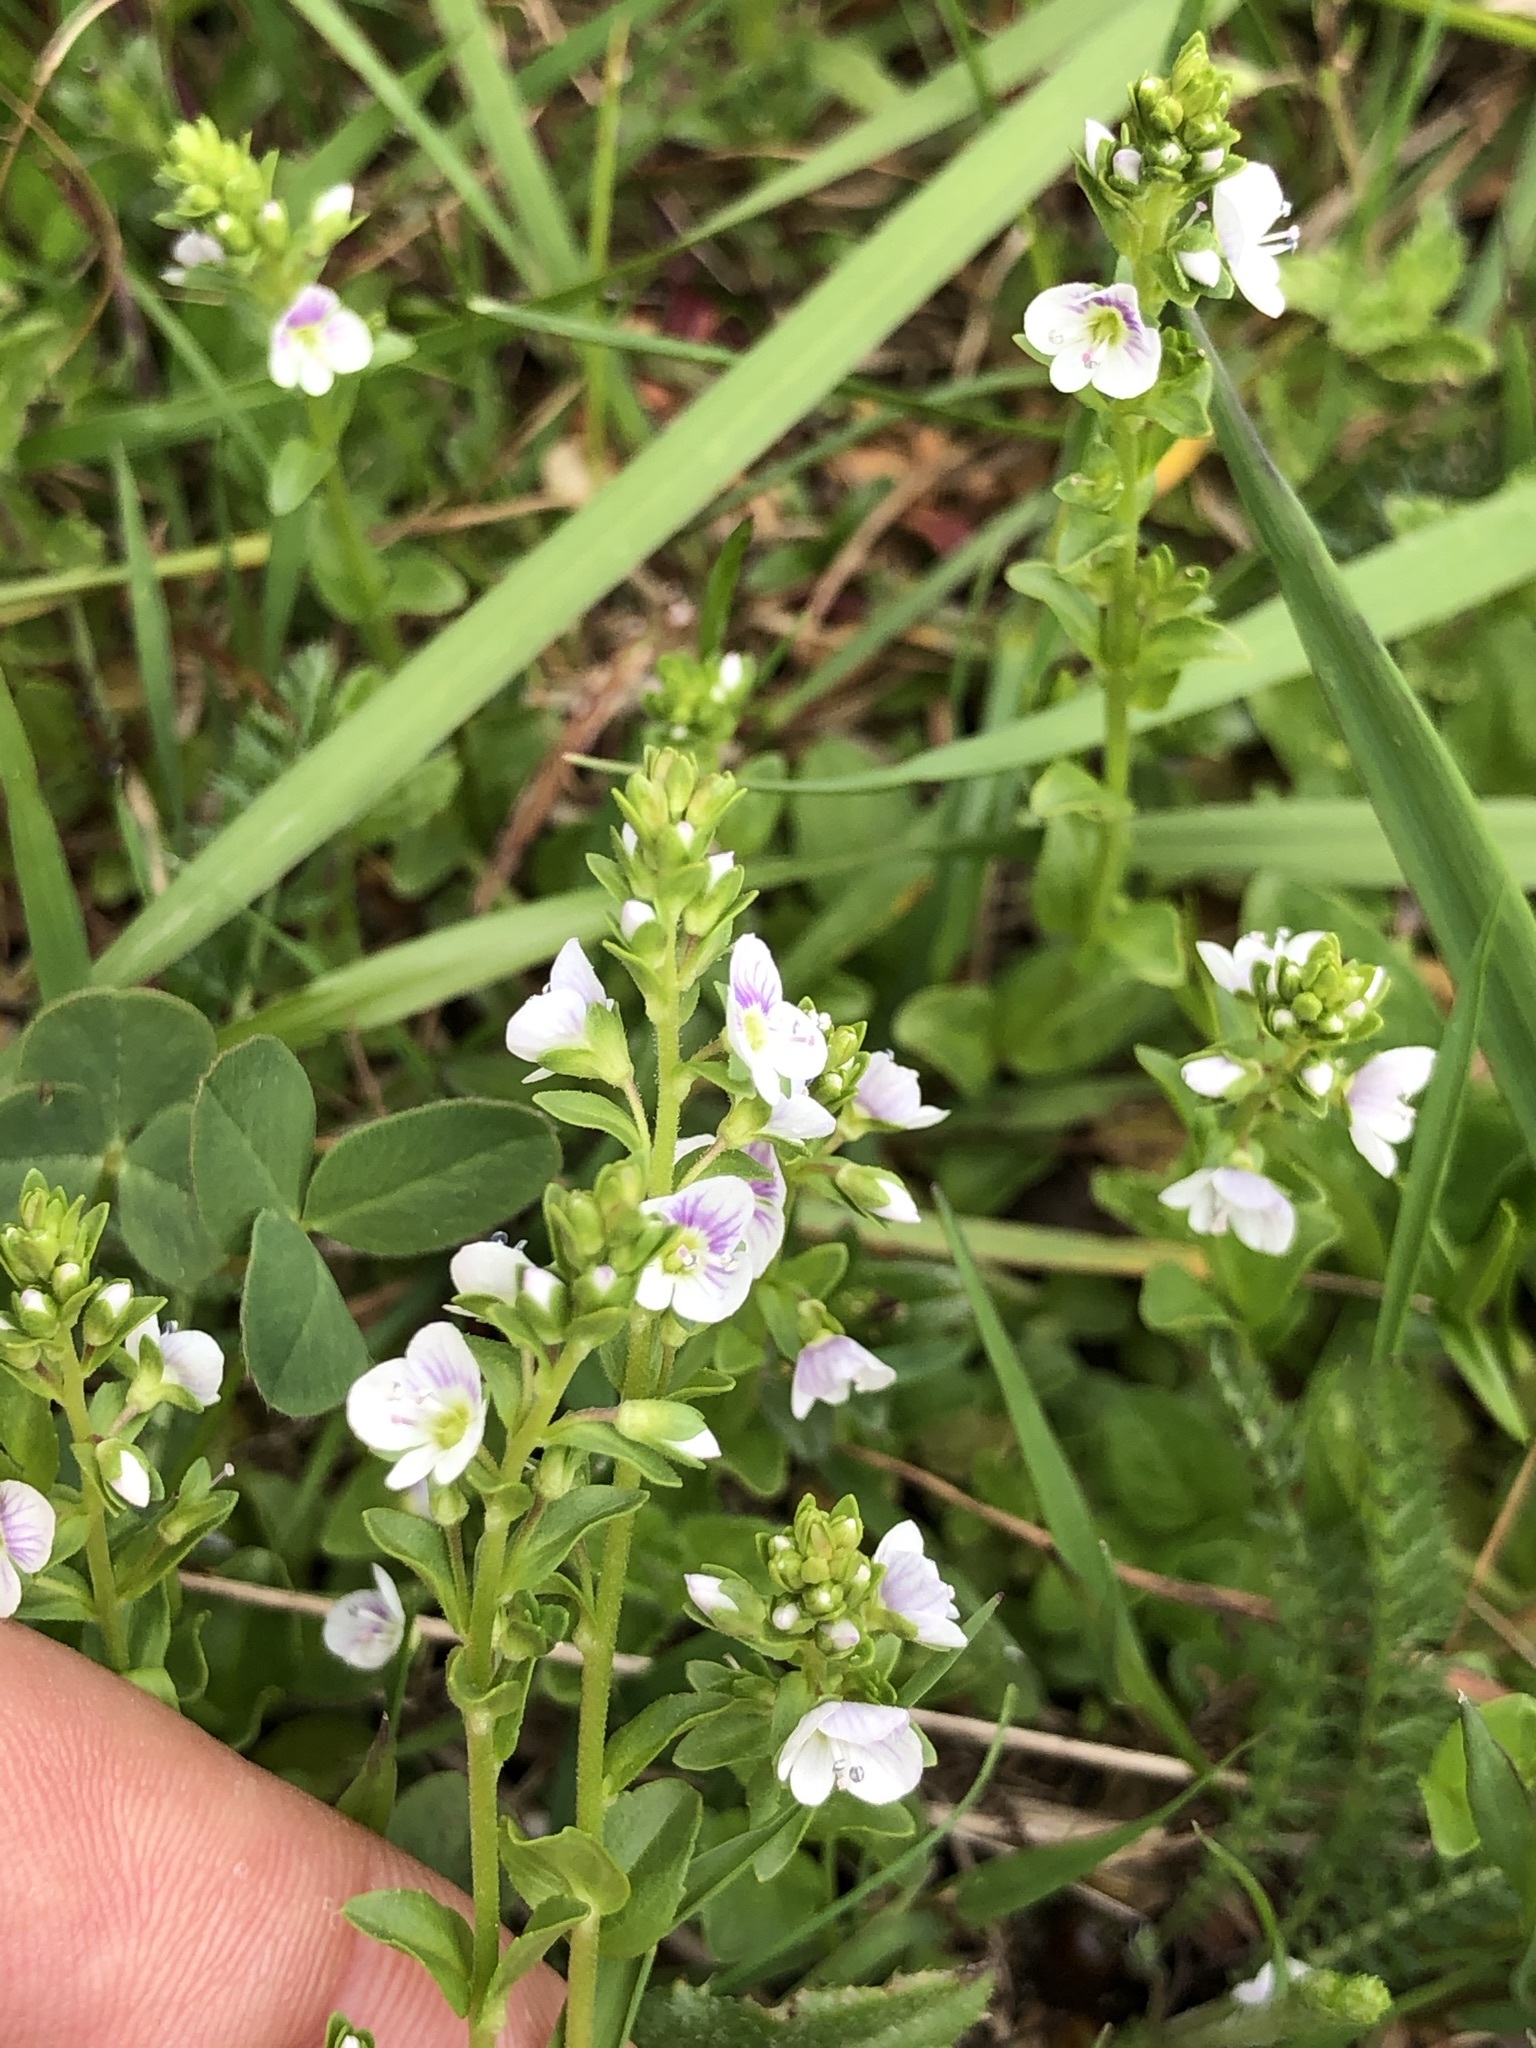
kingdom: Plantae
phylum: Tracheophyta
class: Magnoliopsida
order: Lamiales
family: Plantaginaceae
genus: Veronica
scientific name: Veronica serpyllifolia
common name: Thyme-leaved speedwell
